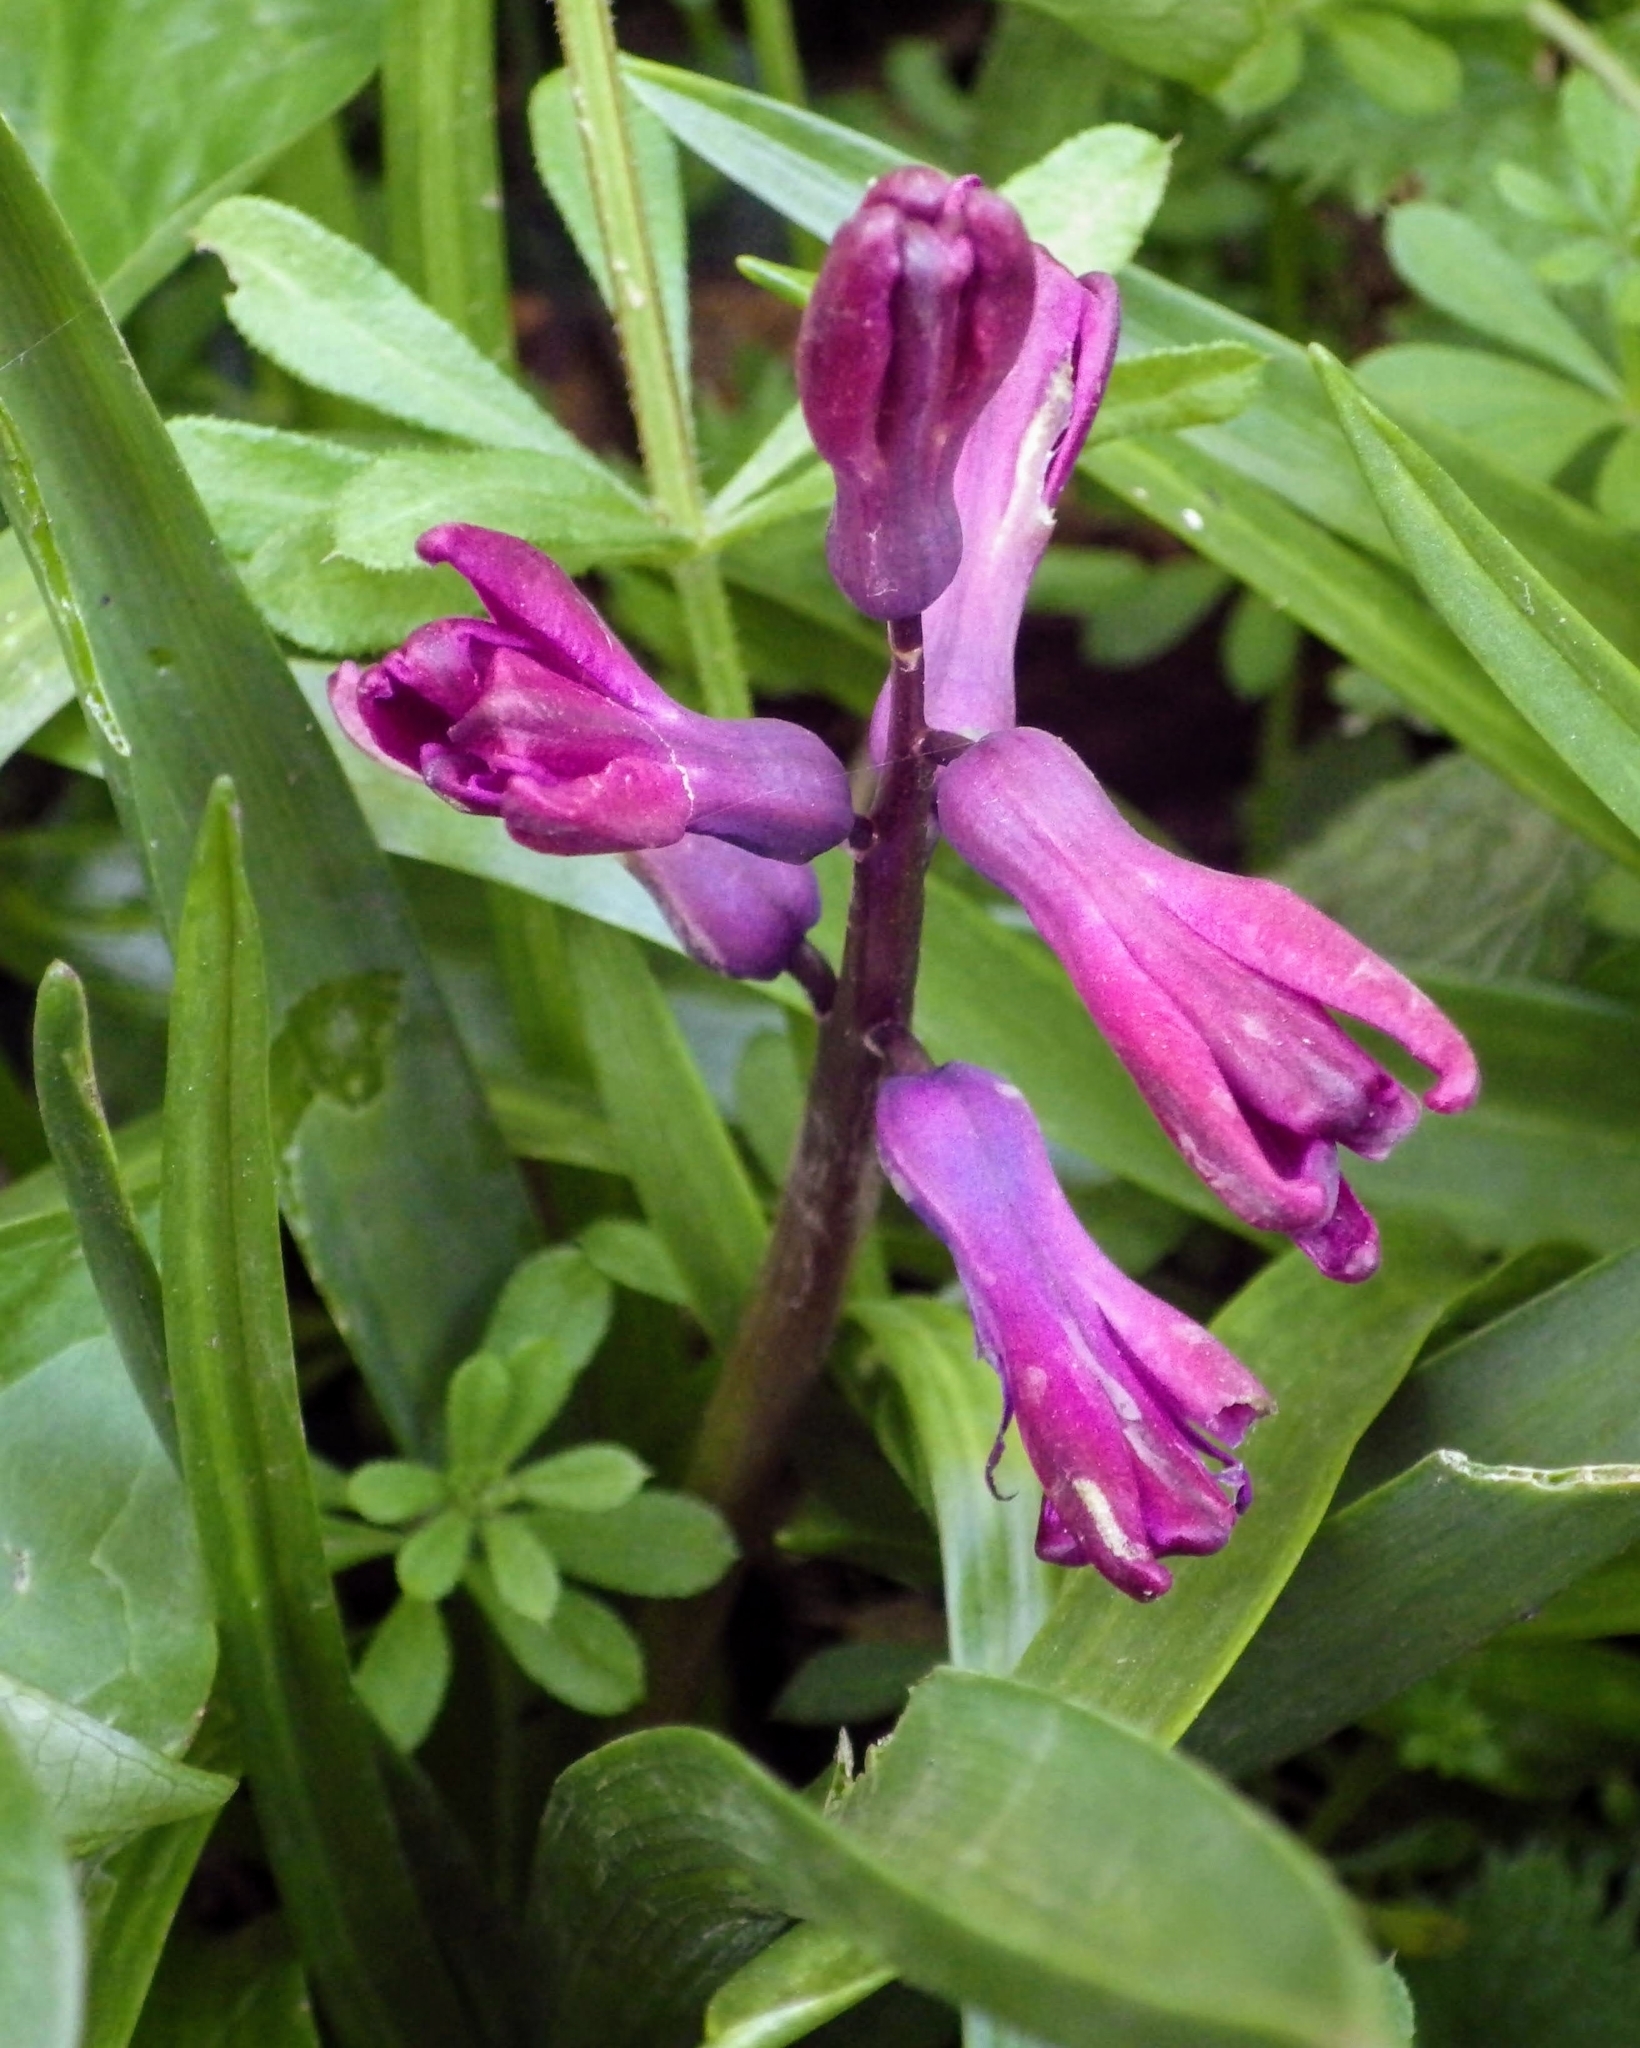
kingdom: Plantae
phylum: Tracheophyta
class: Liliopsida
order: Asparagales
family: Asparagaceae
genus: Hyacinthus
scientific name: Hyacinthus orientalis
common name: Hyacinth
